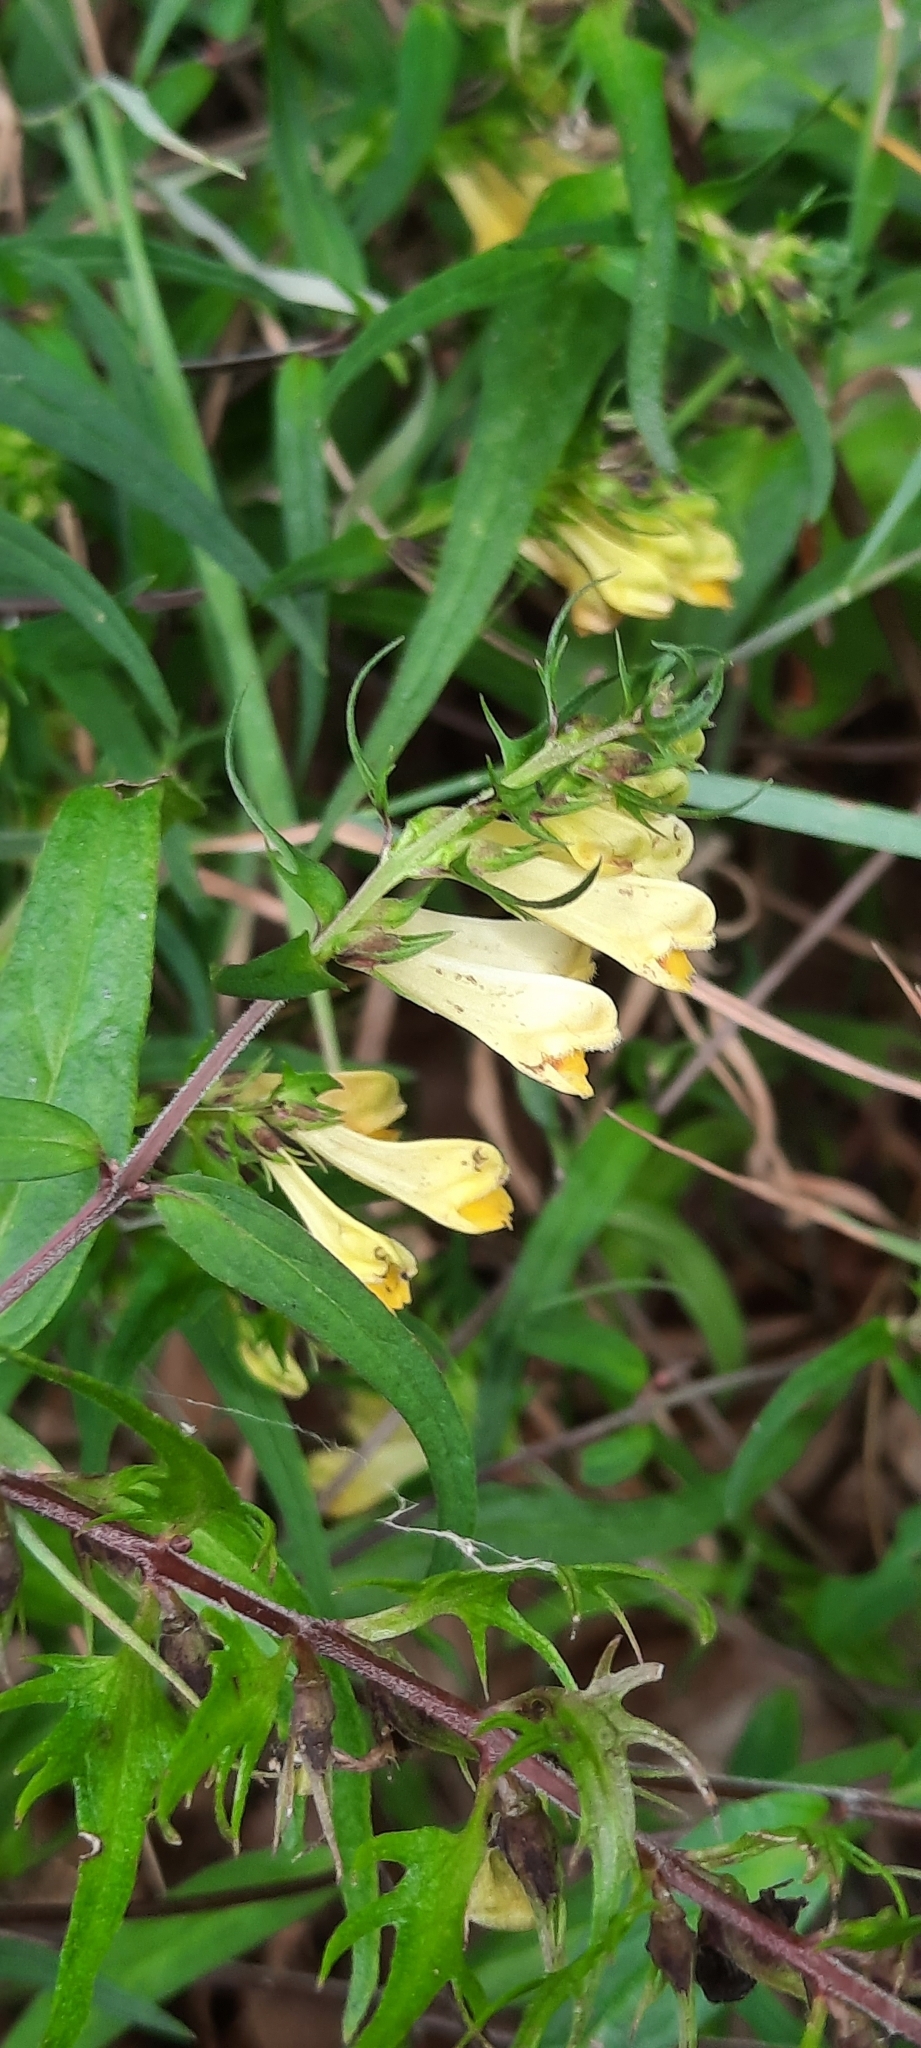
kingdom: Plantae
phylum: Tracheophyta
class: Magnoliopsida
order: Lamiales
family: Orobanchaceae
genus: Melampyrum
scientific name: Melampyrum pratense
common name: Common cow-wheat
